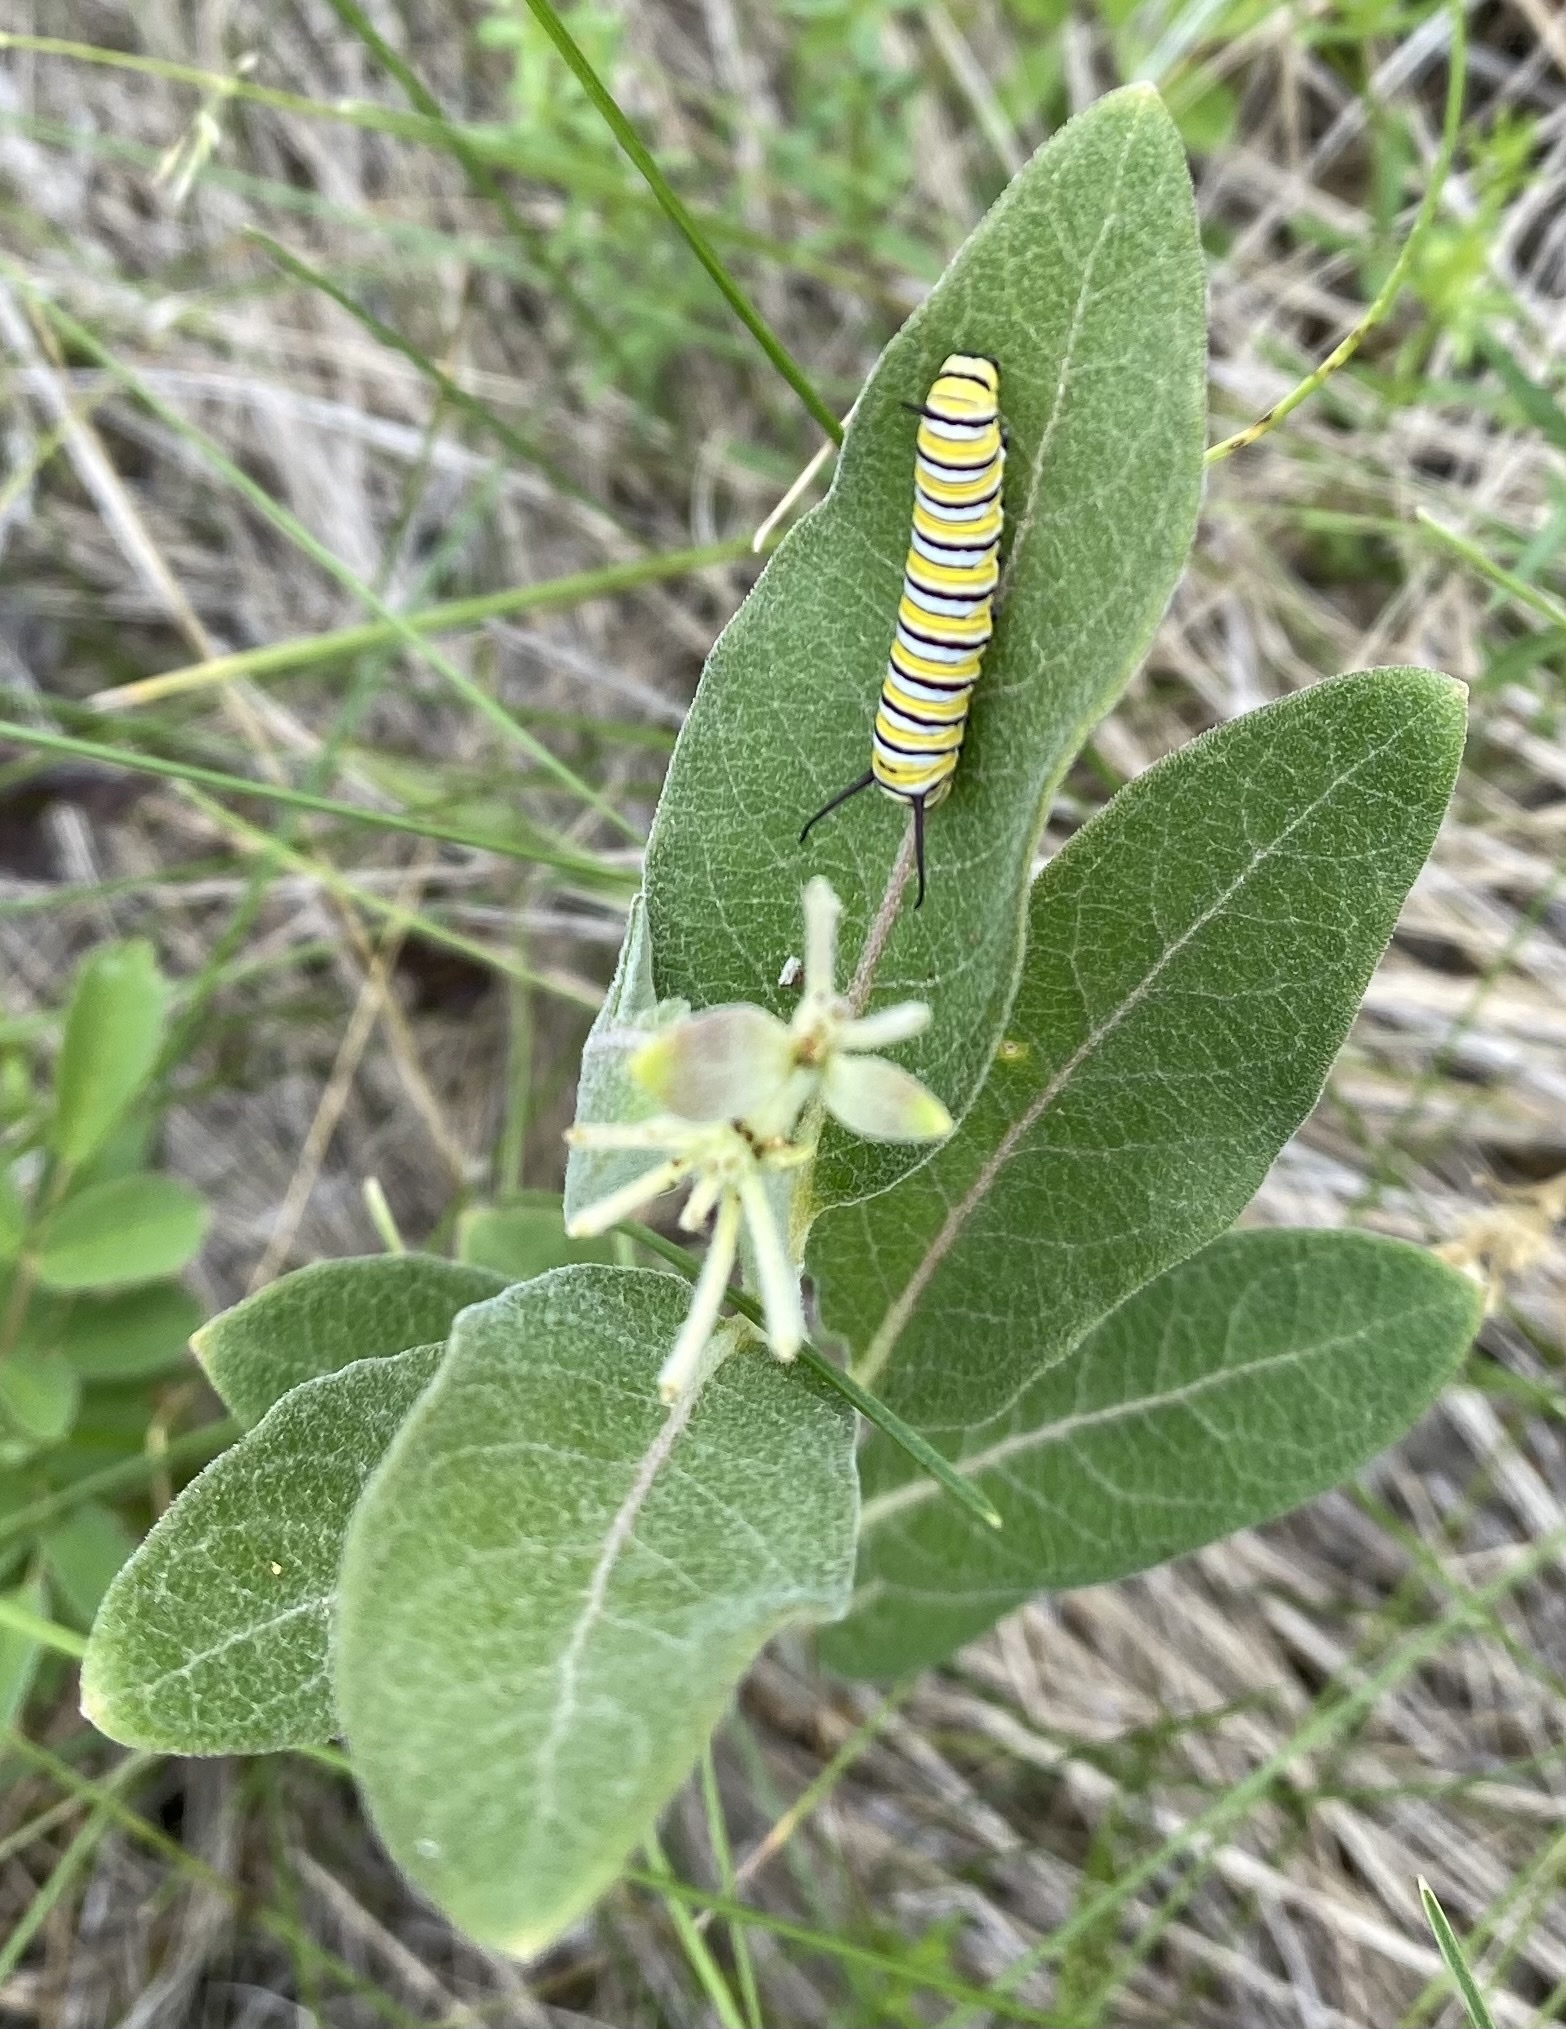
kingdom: Animalia
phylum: Arthropoda
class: Insecta
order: Lepidoptera
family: Nymphalidae
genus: Danaus
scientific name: Danaus plexippus
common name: Monarch
